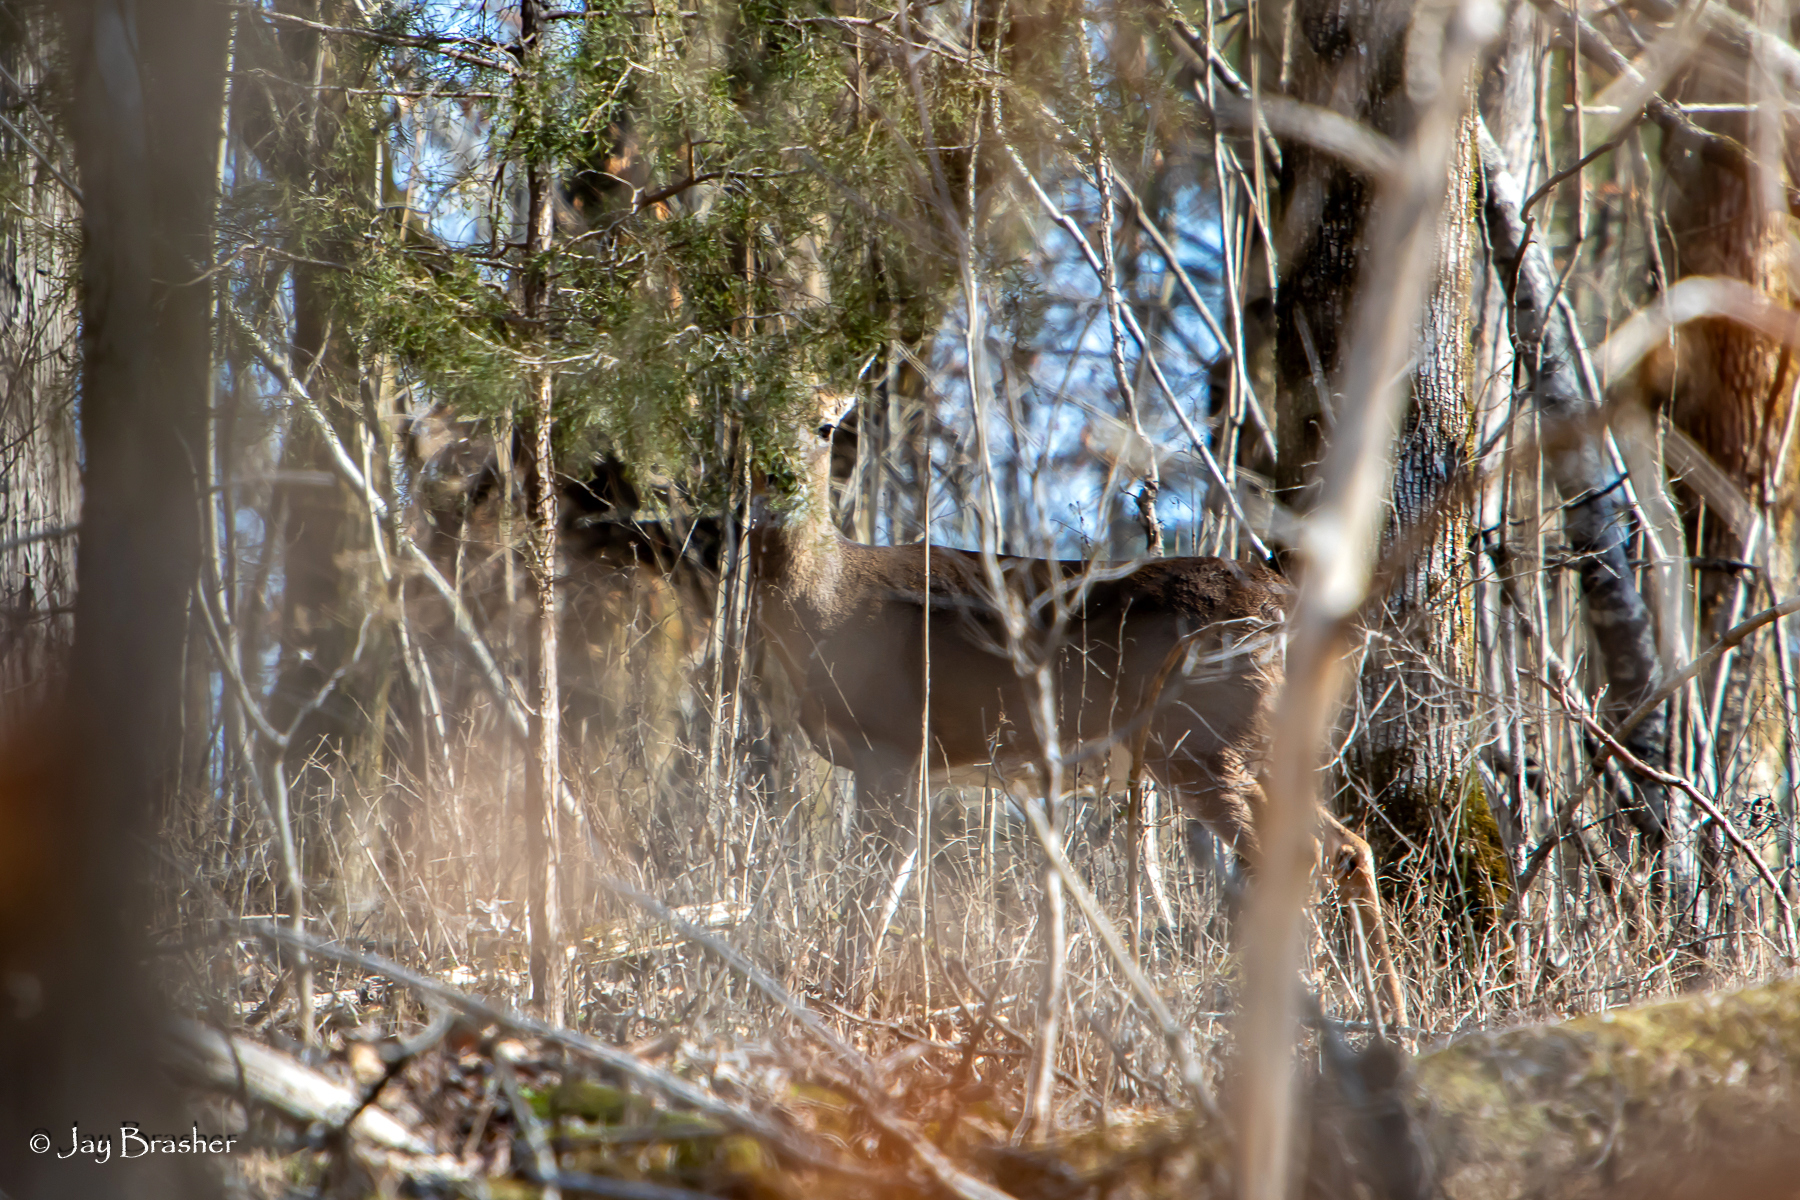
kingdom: Animalia
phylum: Chordata
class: Mammalia
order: Artiodactyla
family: Cervidae
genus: Odocoileus
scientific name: Odocoileus virginianus
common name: White-tailed deer
